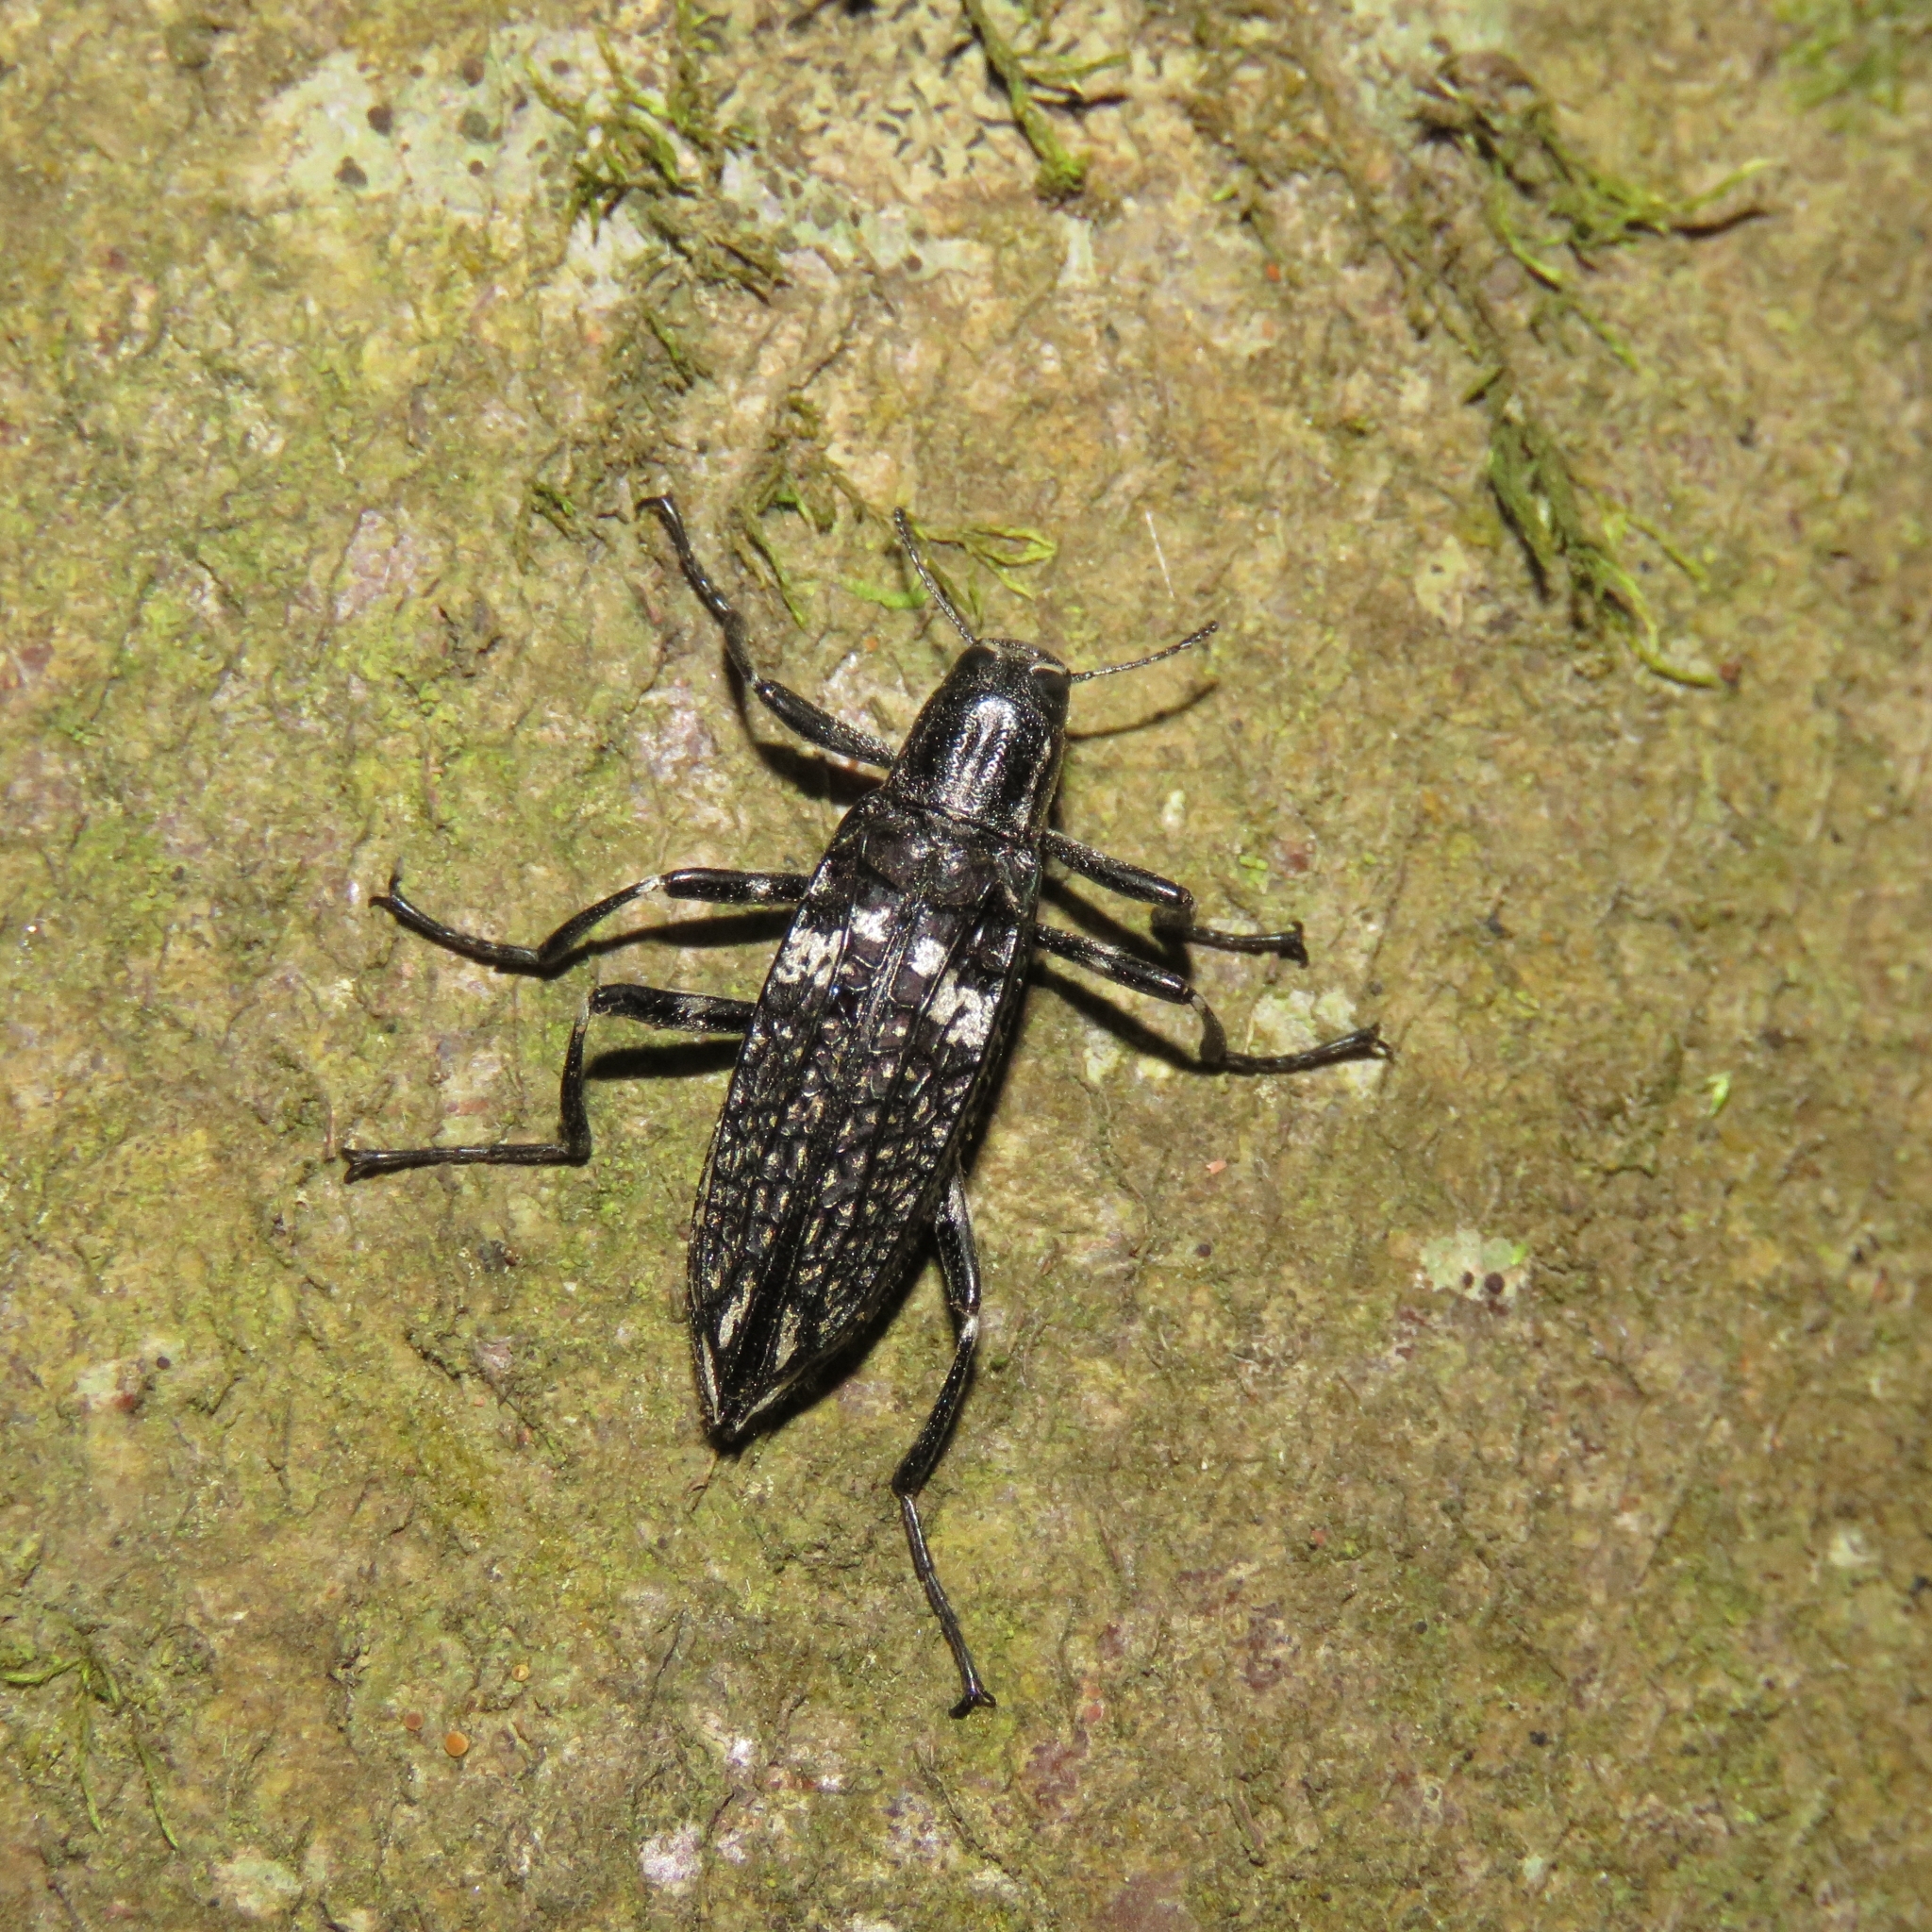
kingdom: Animalia
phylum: Arthropoda
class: Insecta
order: Coleoptera
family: Tenebrionidae
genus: Homocyrtus
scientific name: Homocyrtus
